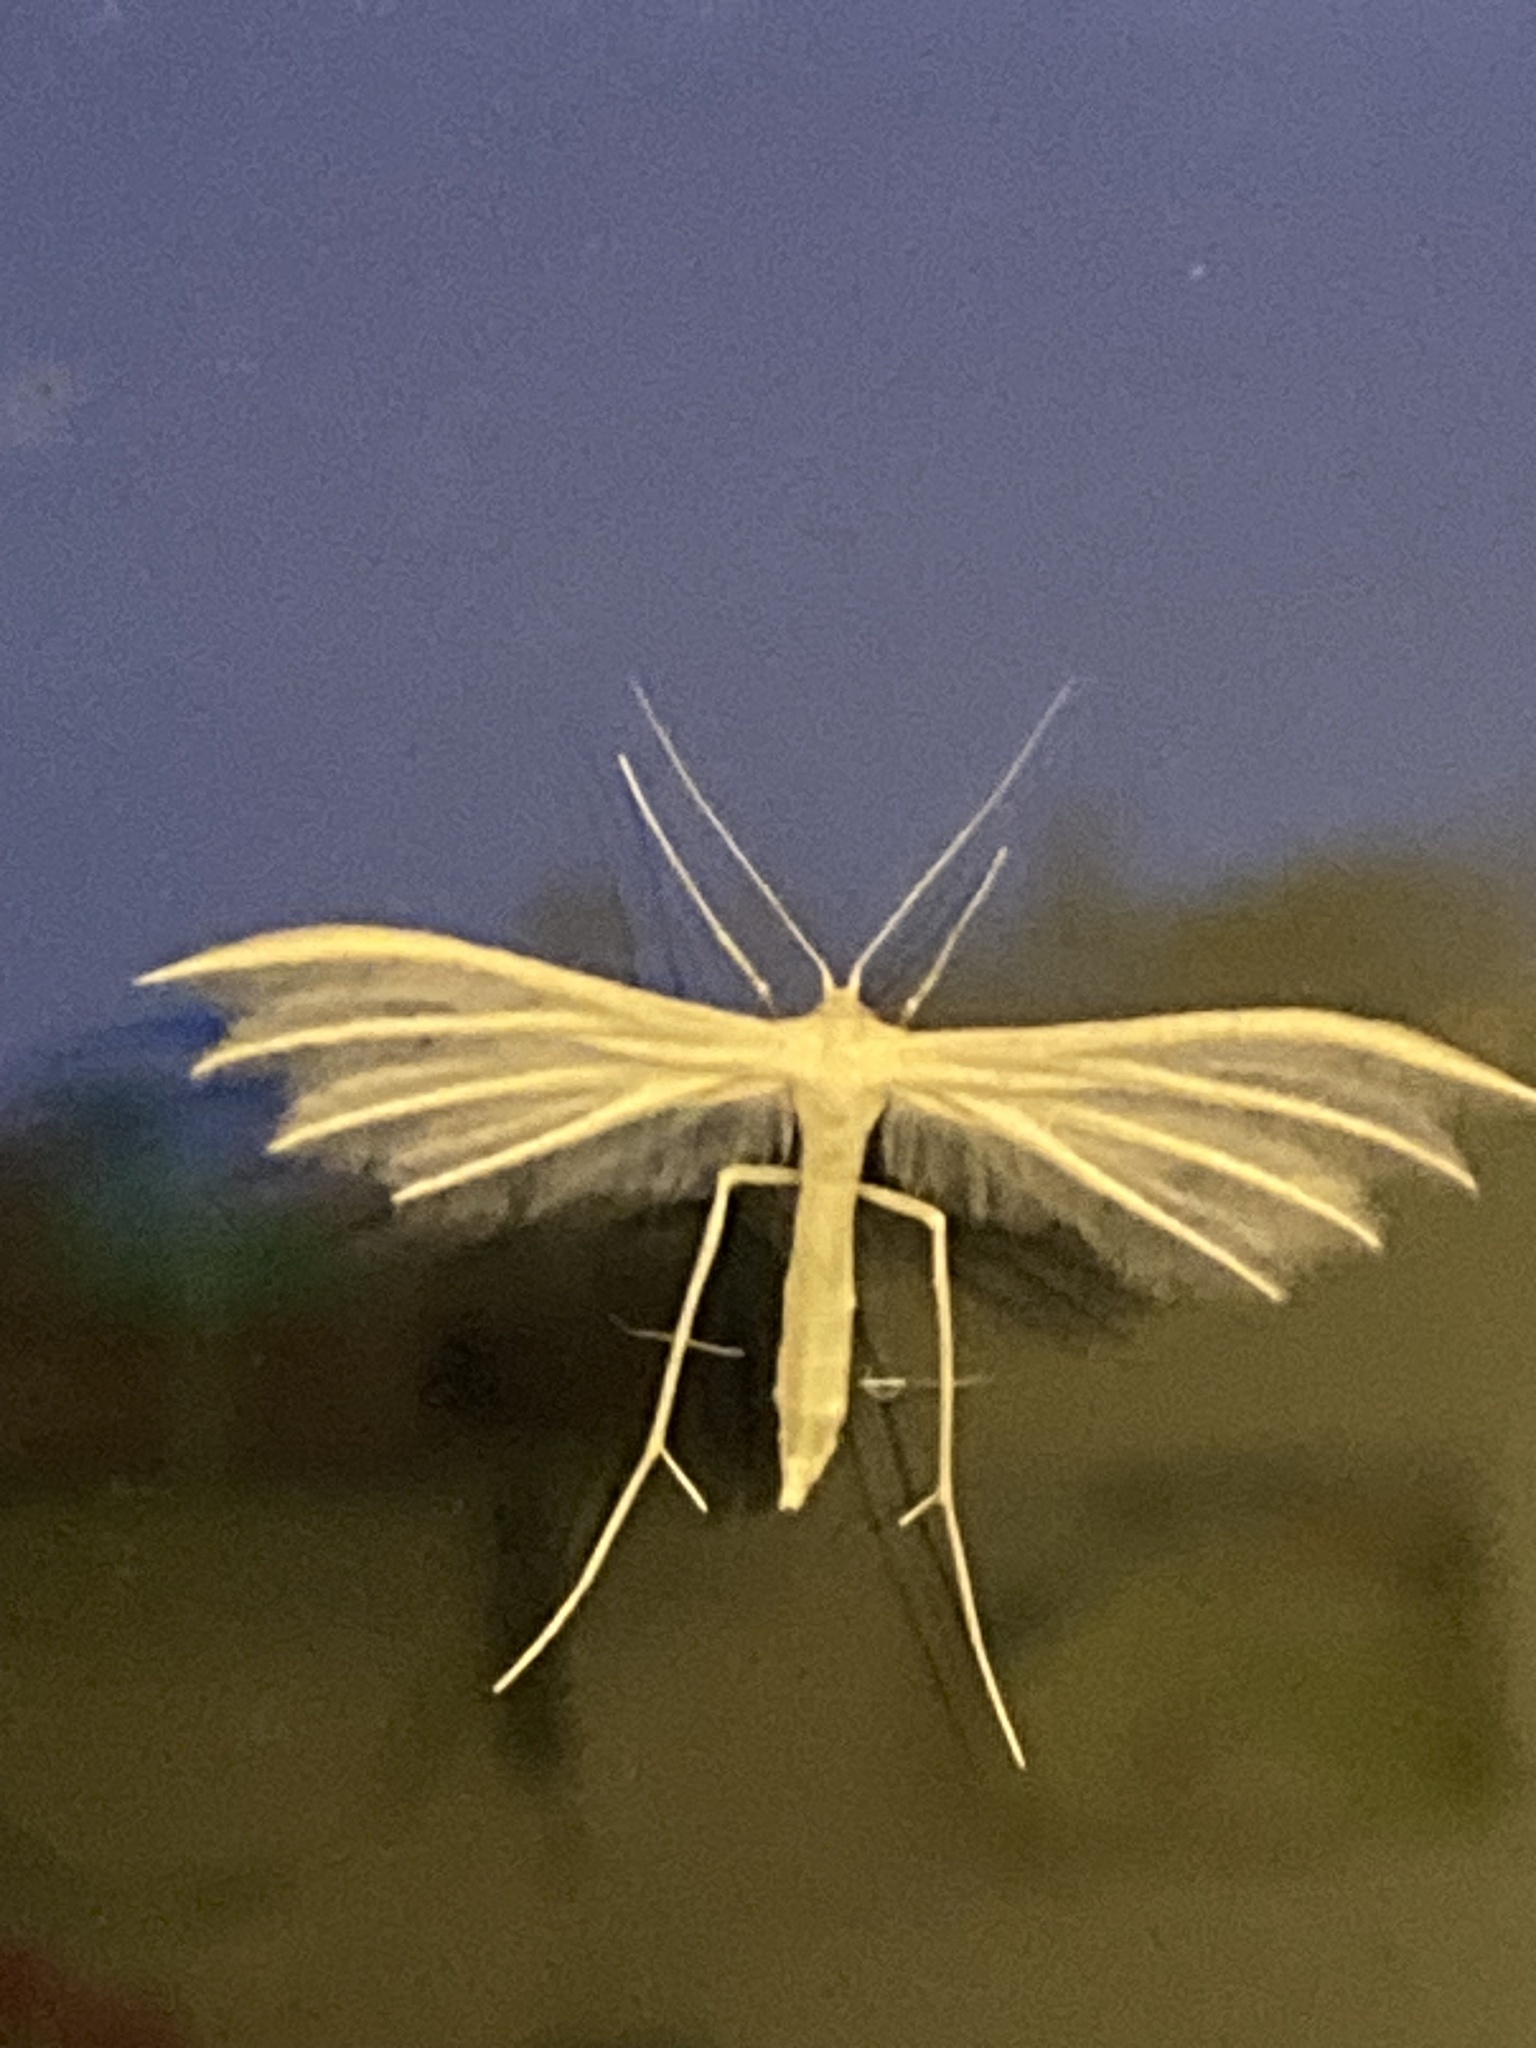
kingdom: Animalia
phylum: Arthropoda
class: Insecta
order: Lepidoptera
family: Pterophoridae
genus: Pterophorus
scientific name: Pterophorus pentadactyla
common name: White plume moth
